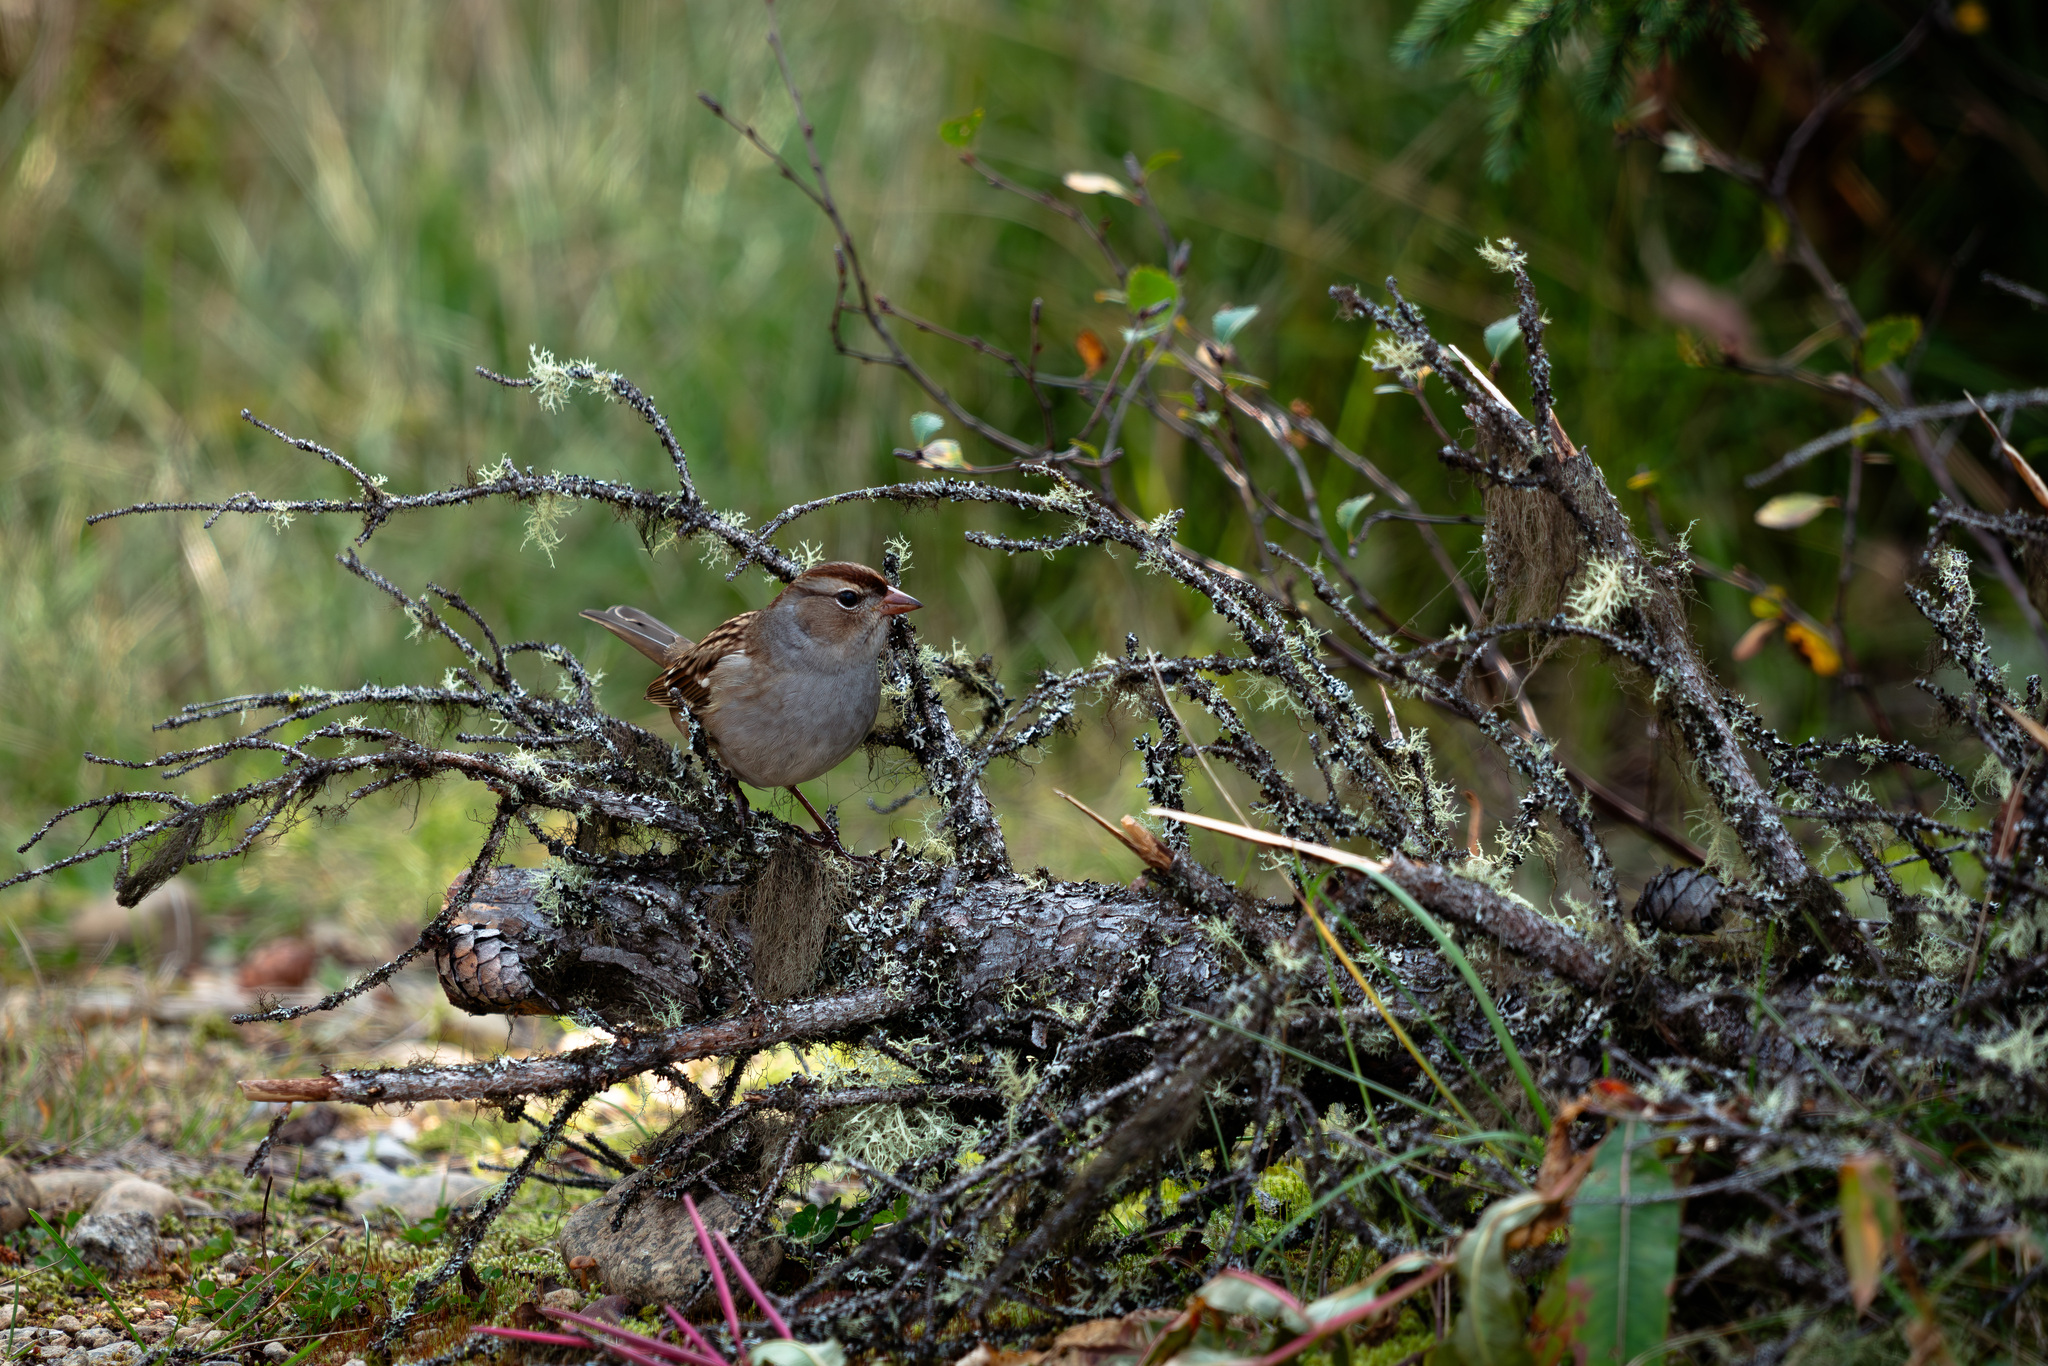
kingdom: Animalia
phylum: Chordata
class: Aves
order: Passeriformes
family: Passerellidae
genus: Zonotrichia
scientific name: Zonotrichia leucophrys
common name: White-crowned sparrow
